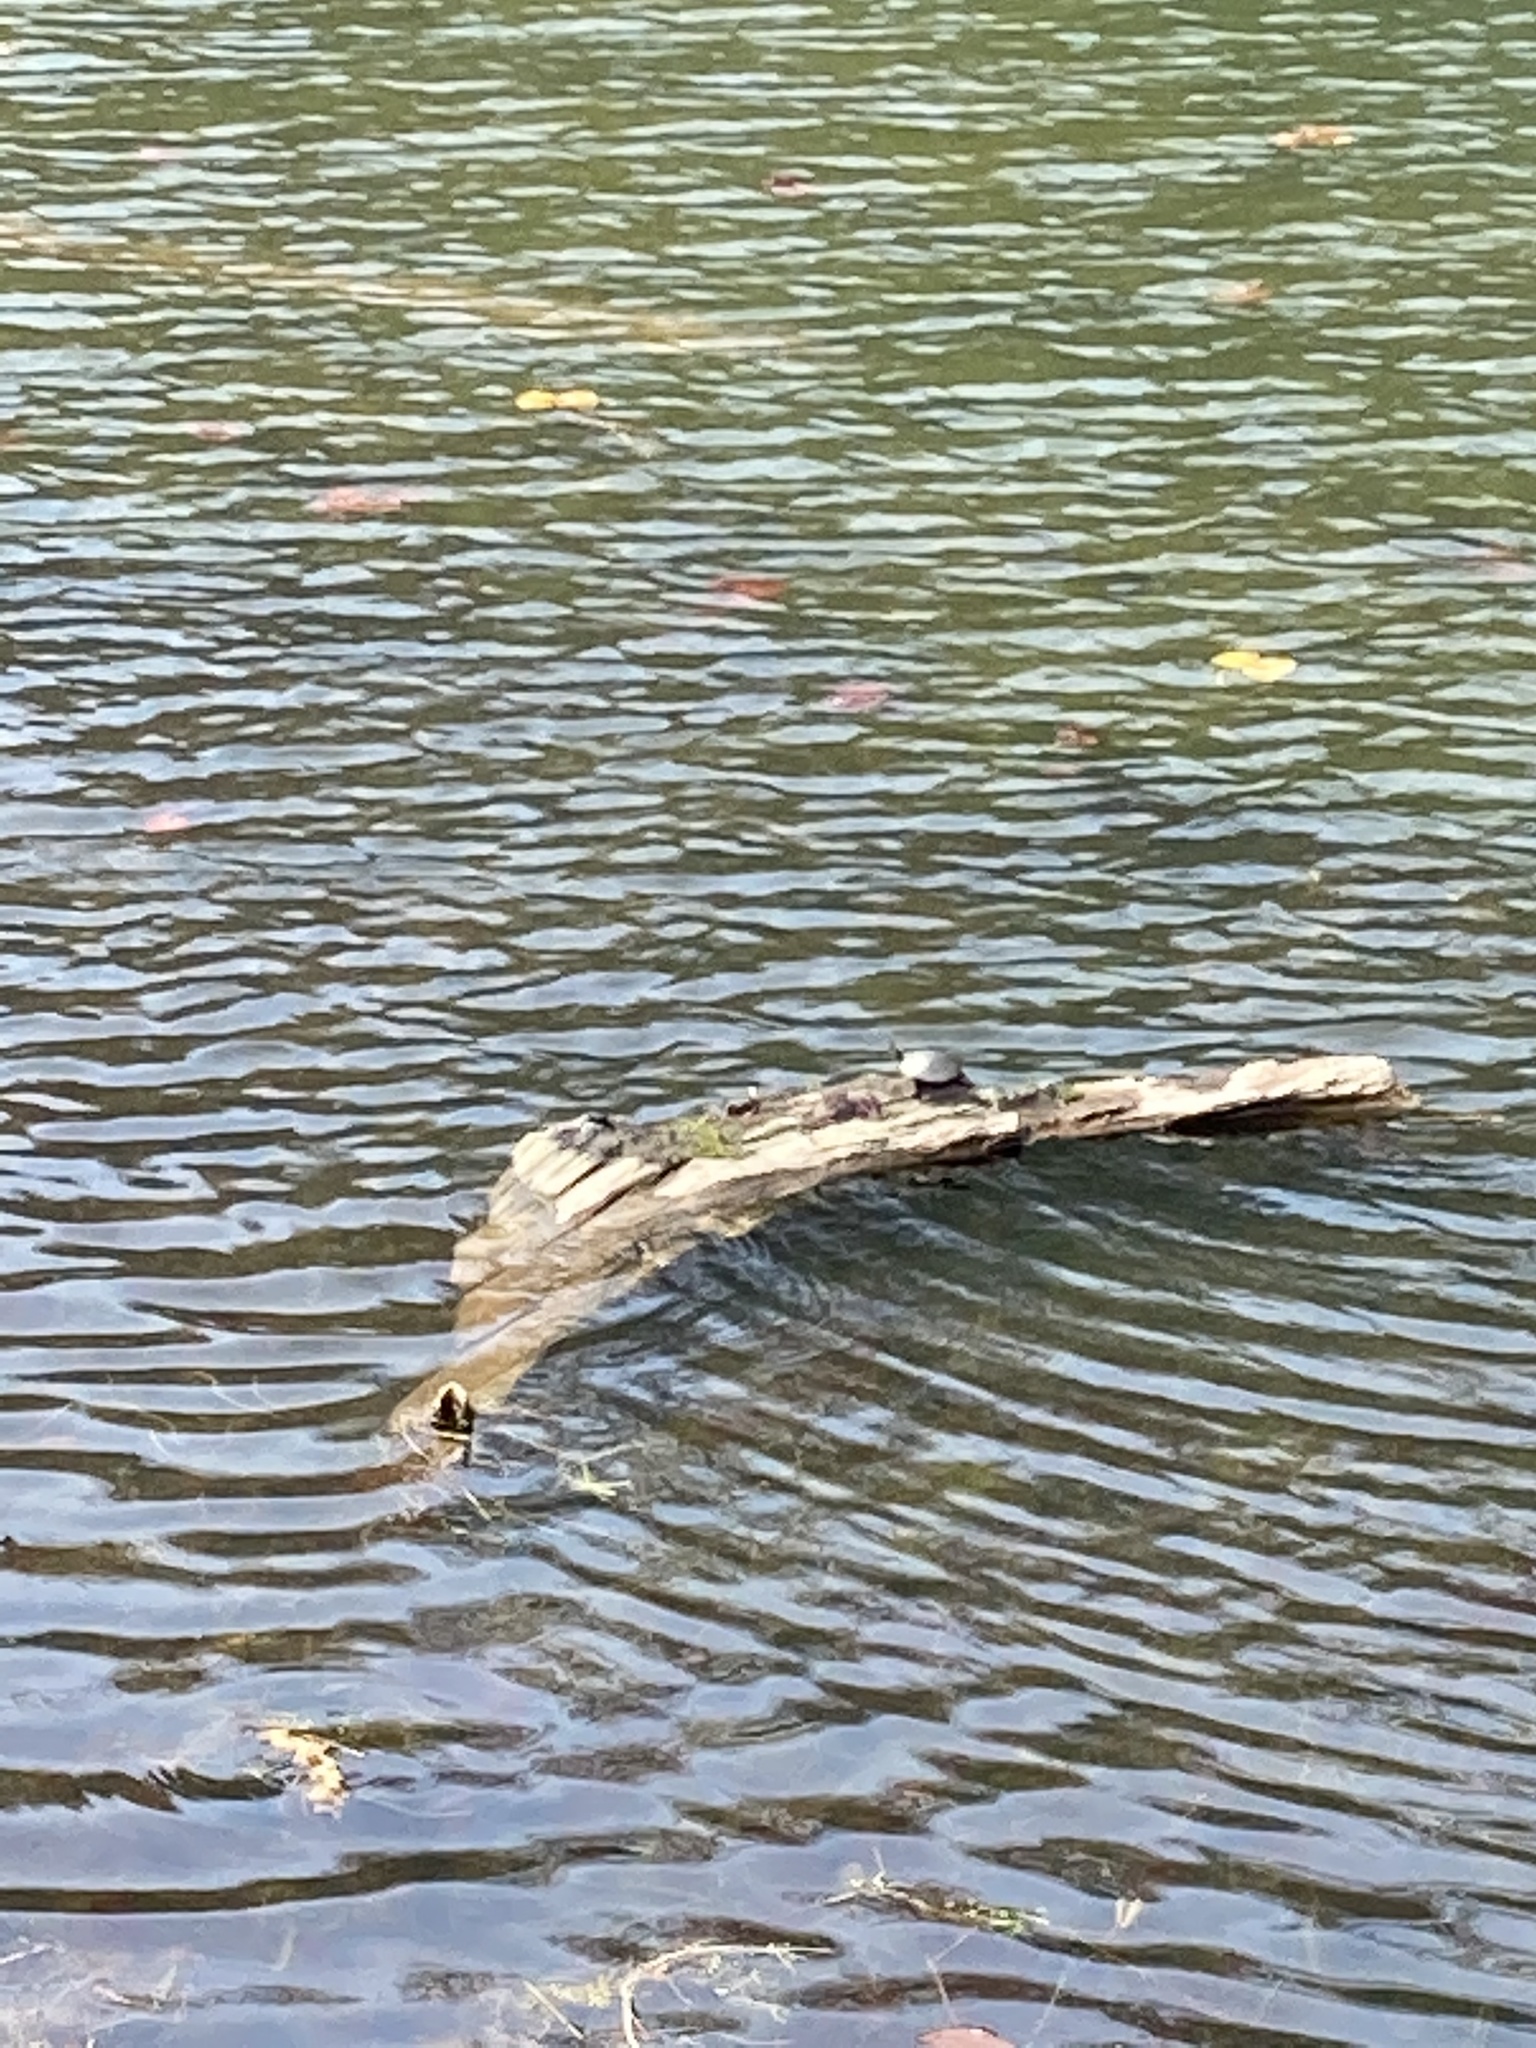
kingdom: Animalia
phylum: Chordata
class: Testudines
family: Emydidae
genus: Chrysemys
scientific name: Chrysemys picta
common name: Painted turtle
